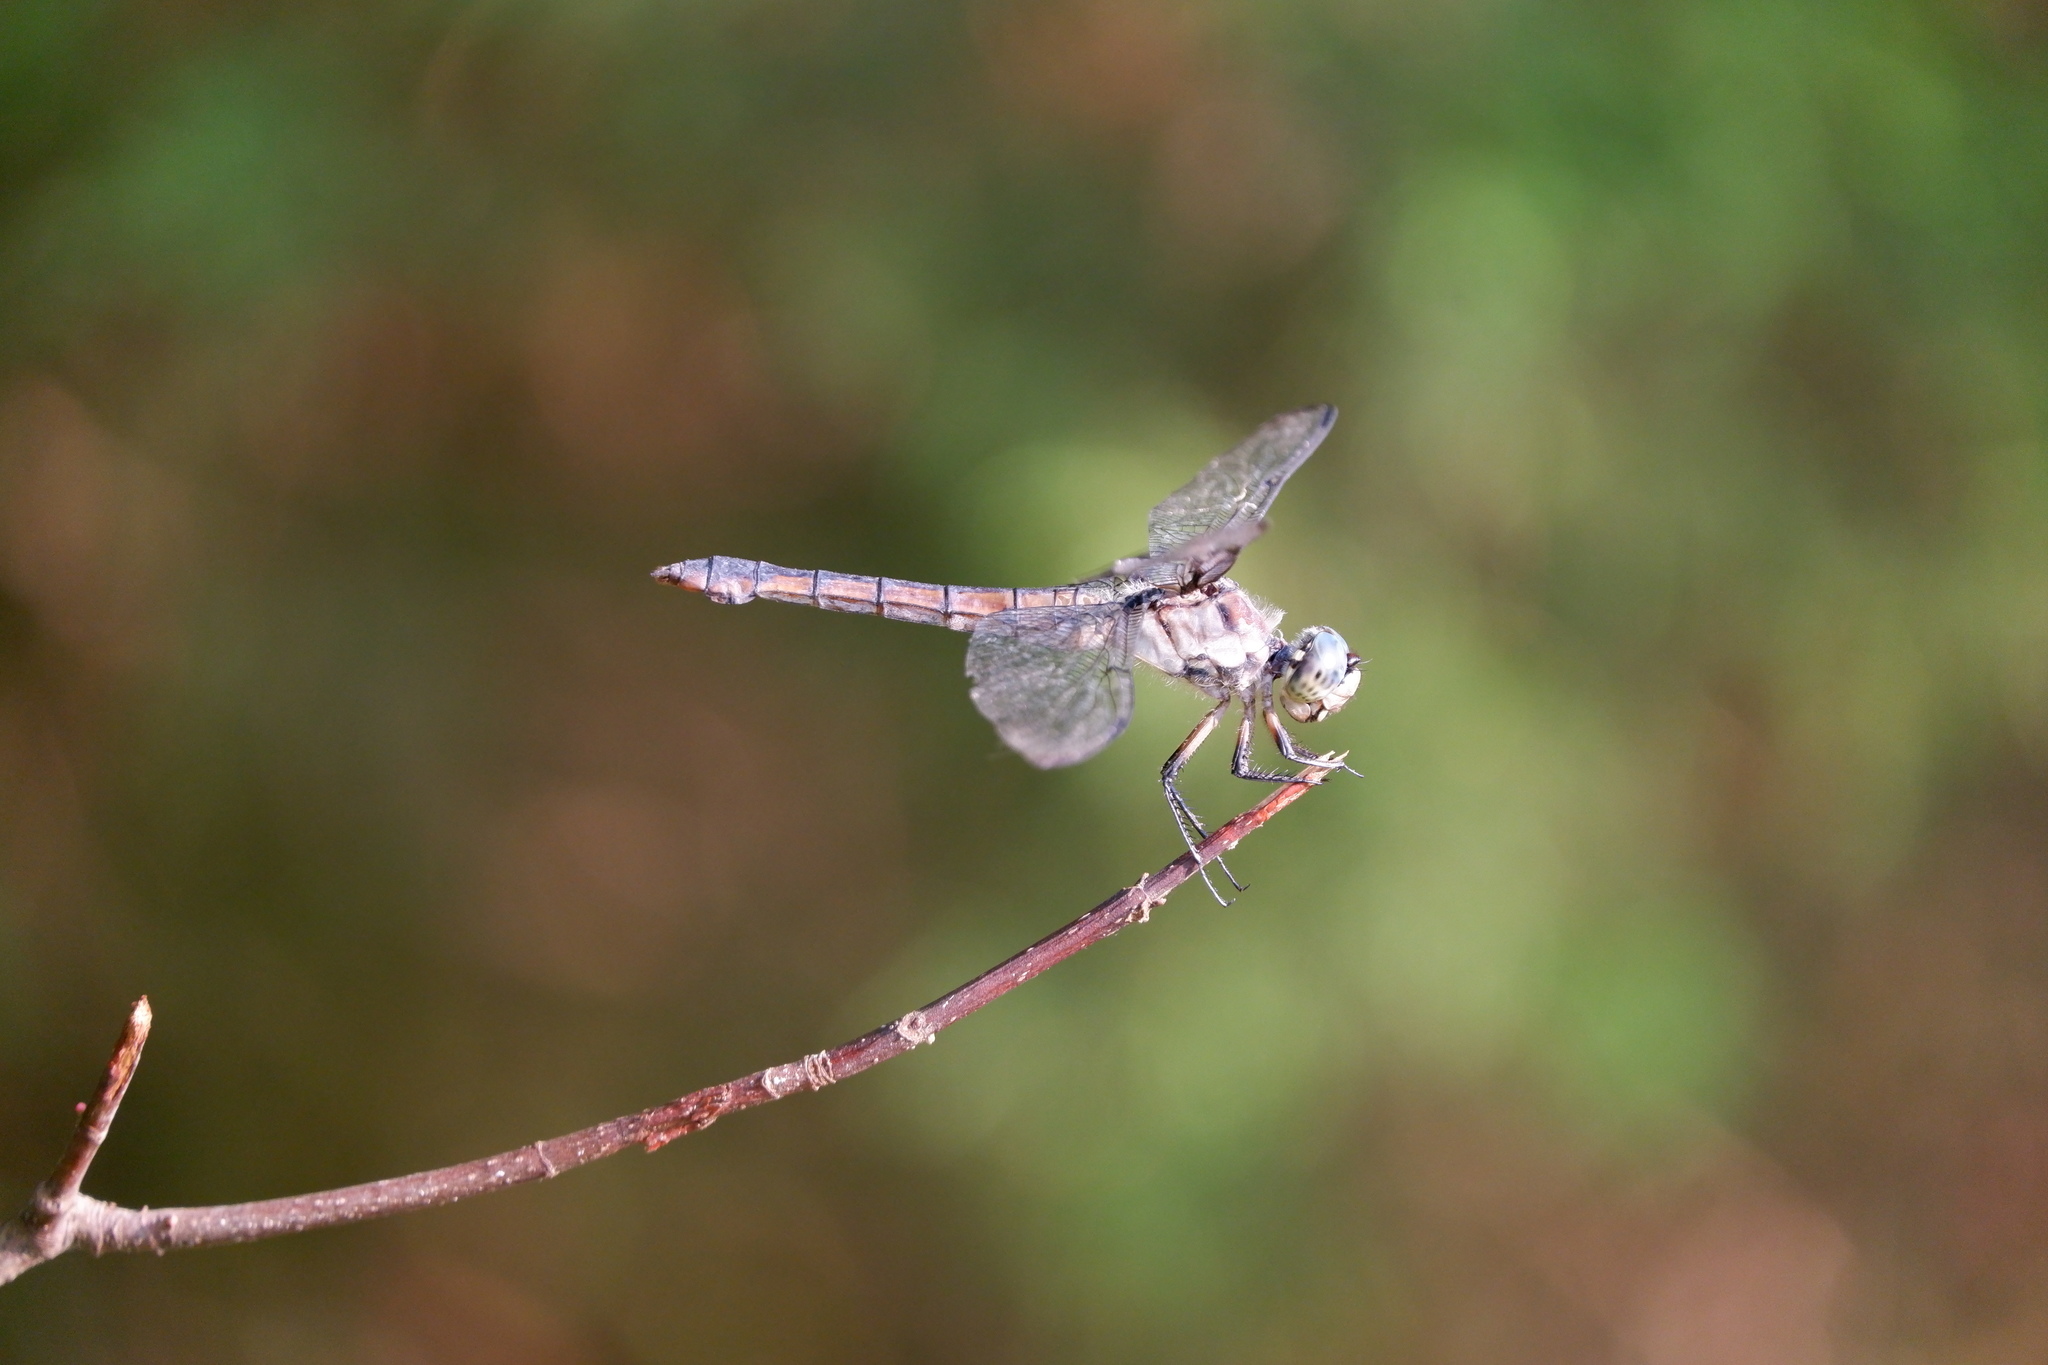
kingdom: Animalia
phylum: Arthropoda
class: Insecta
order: Odonata
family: Libellulidae
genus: Libellula
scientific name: Libellula vibrans
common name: Great blue skimmer
